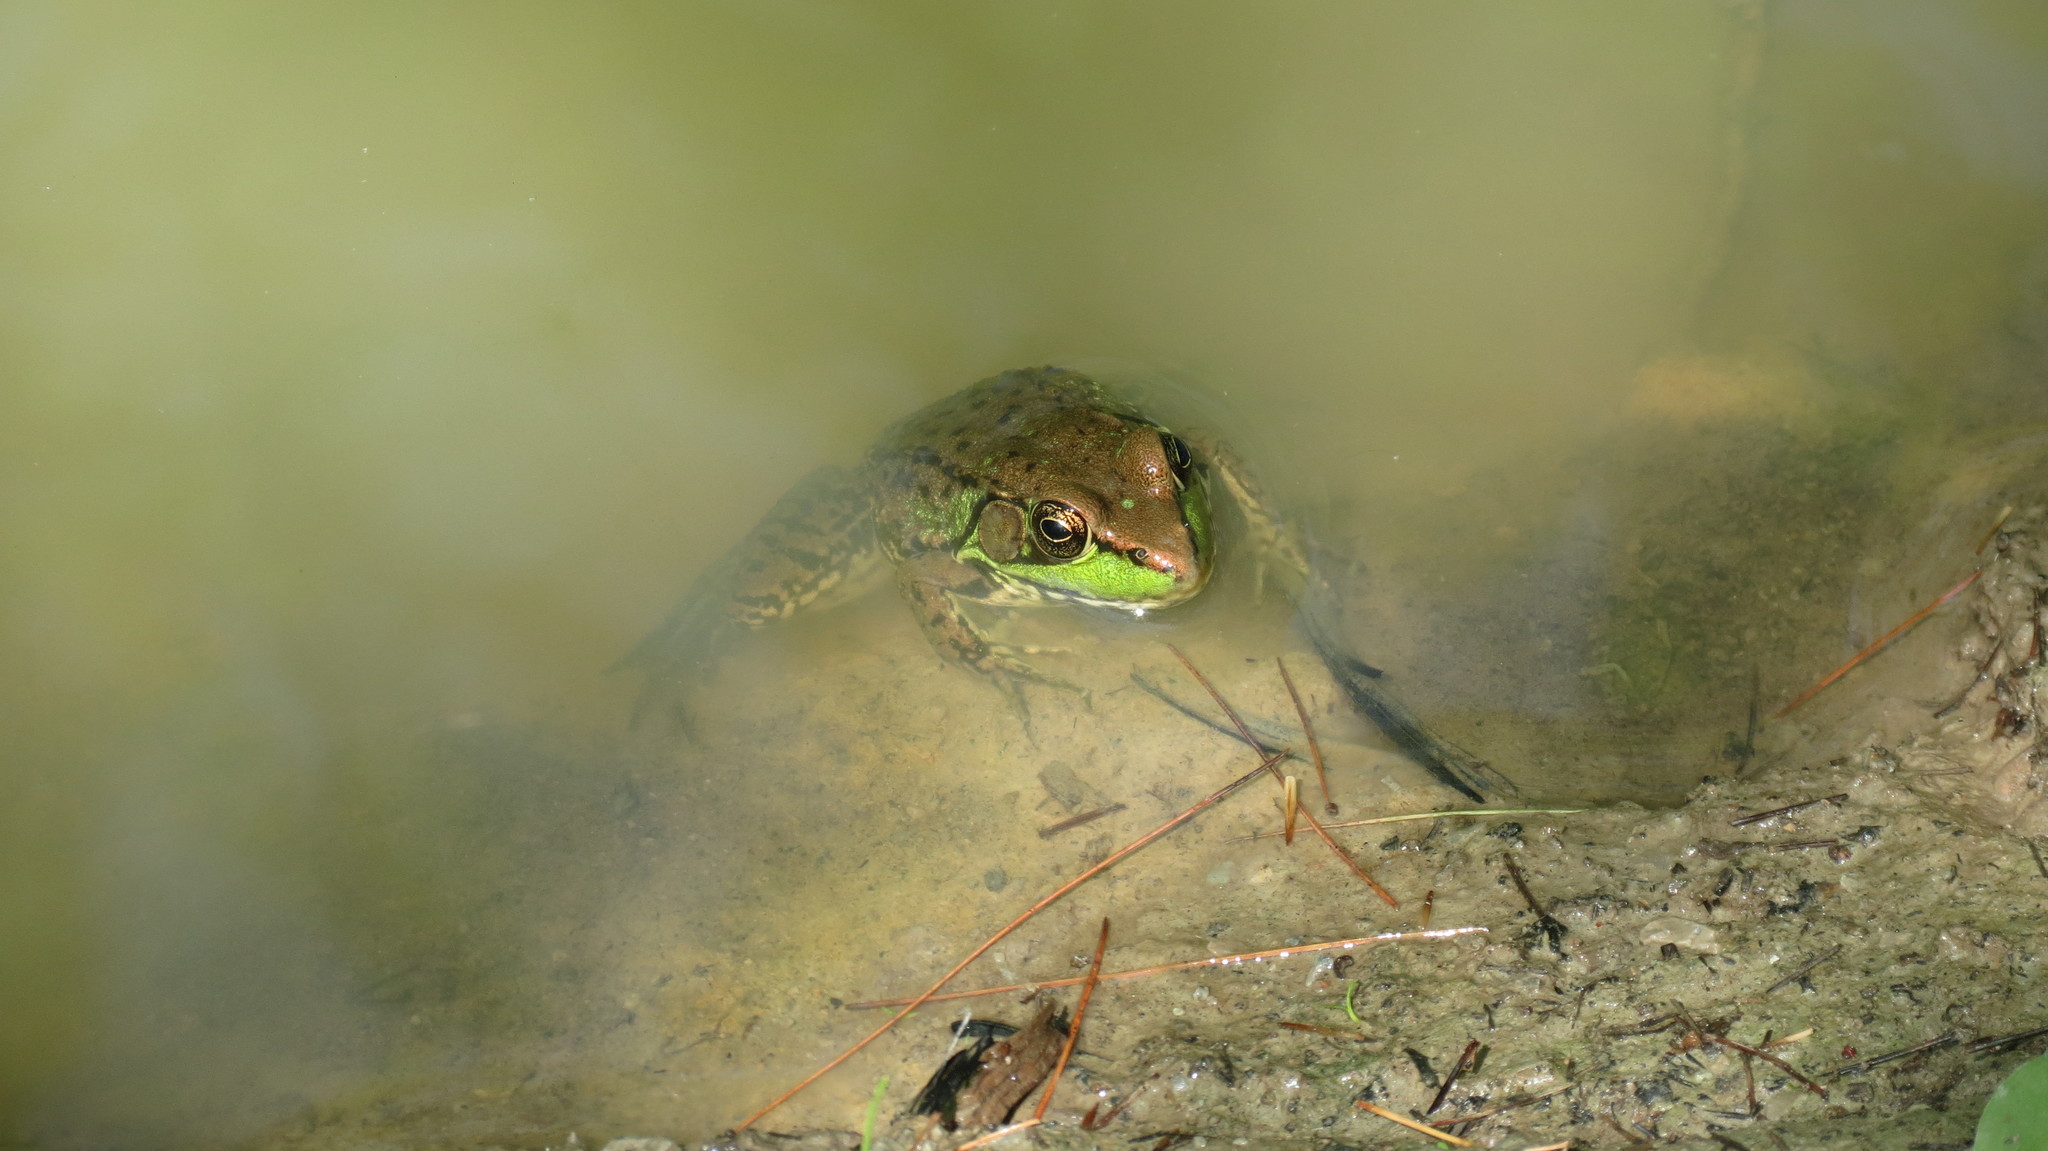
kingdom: Animalia
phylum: Chordata
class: Amphibia
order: Anura
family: Ranidae
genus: Lithobates
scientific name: Lithobates clamitans
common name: Green frog
